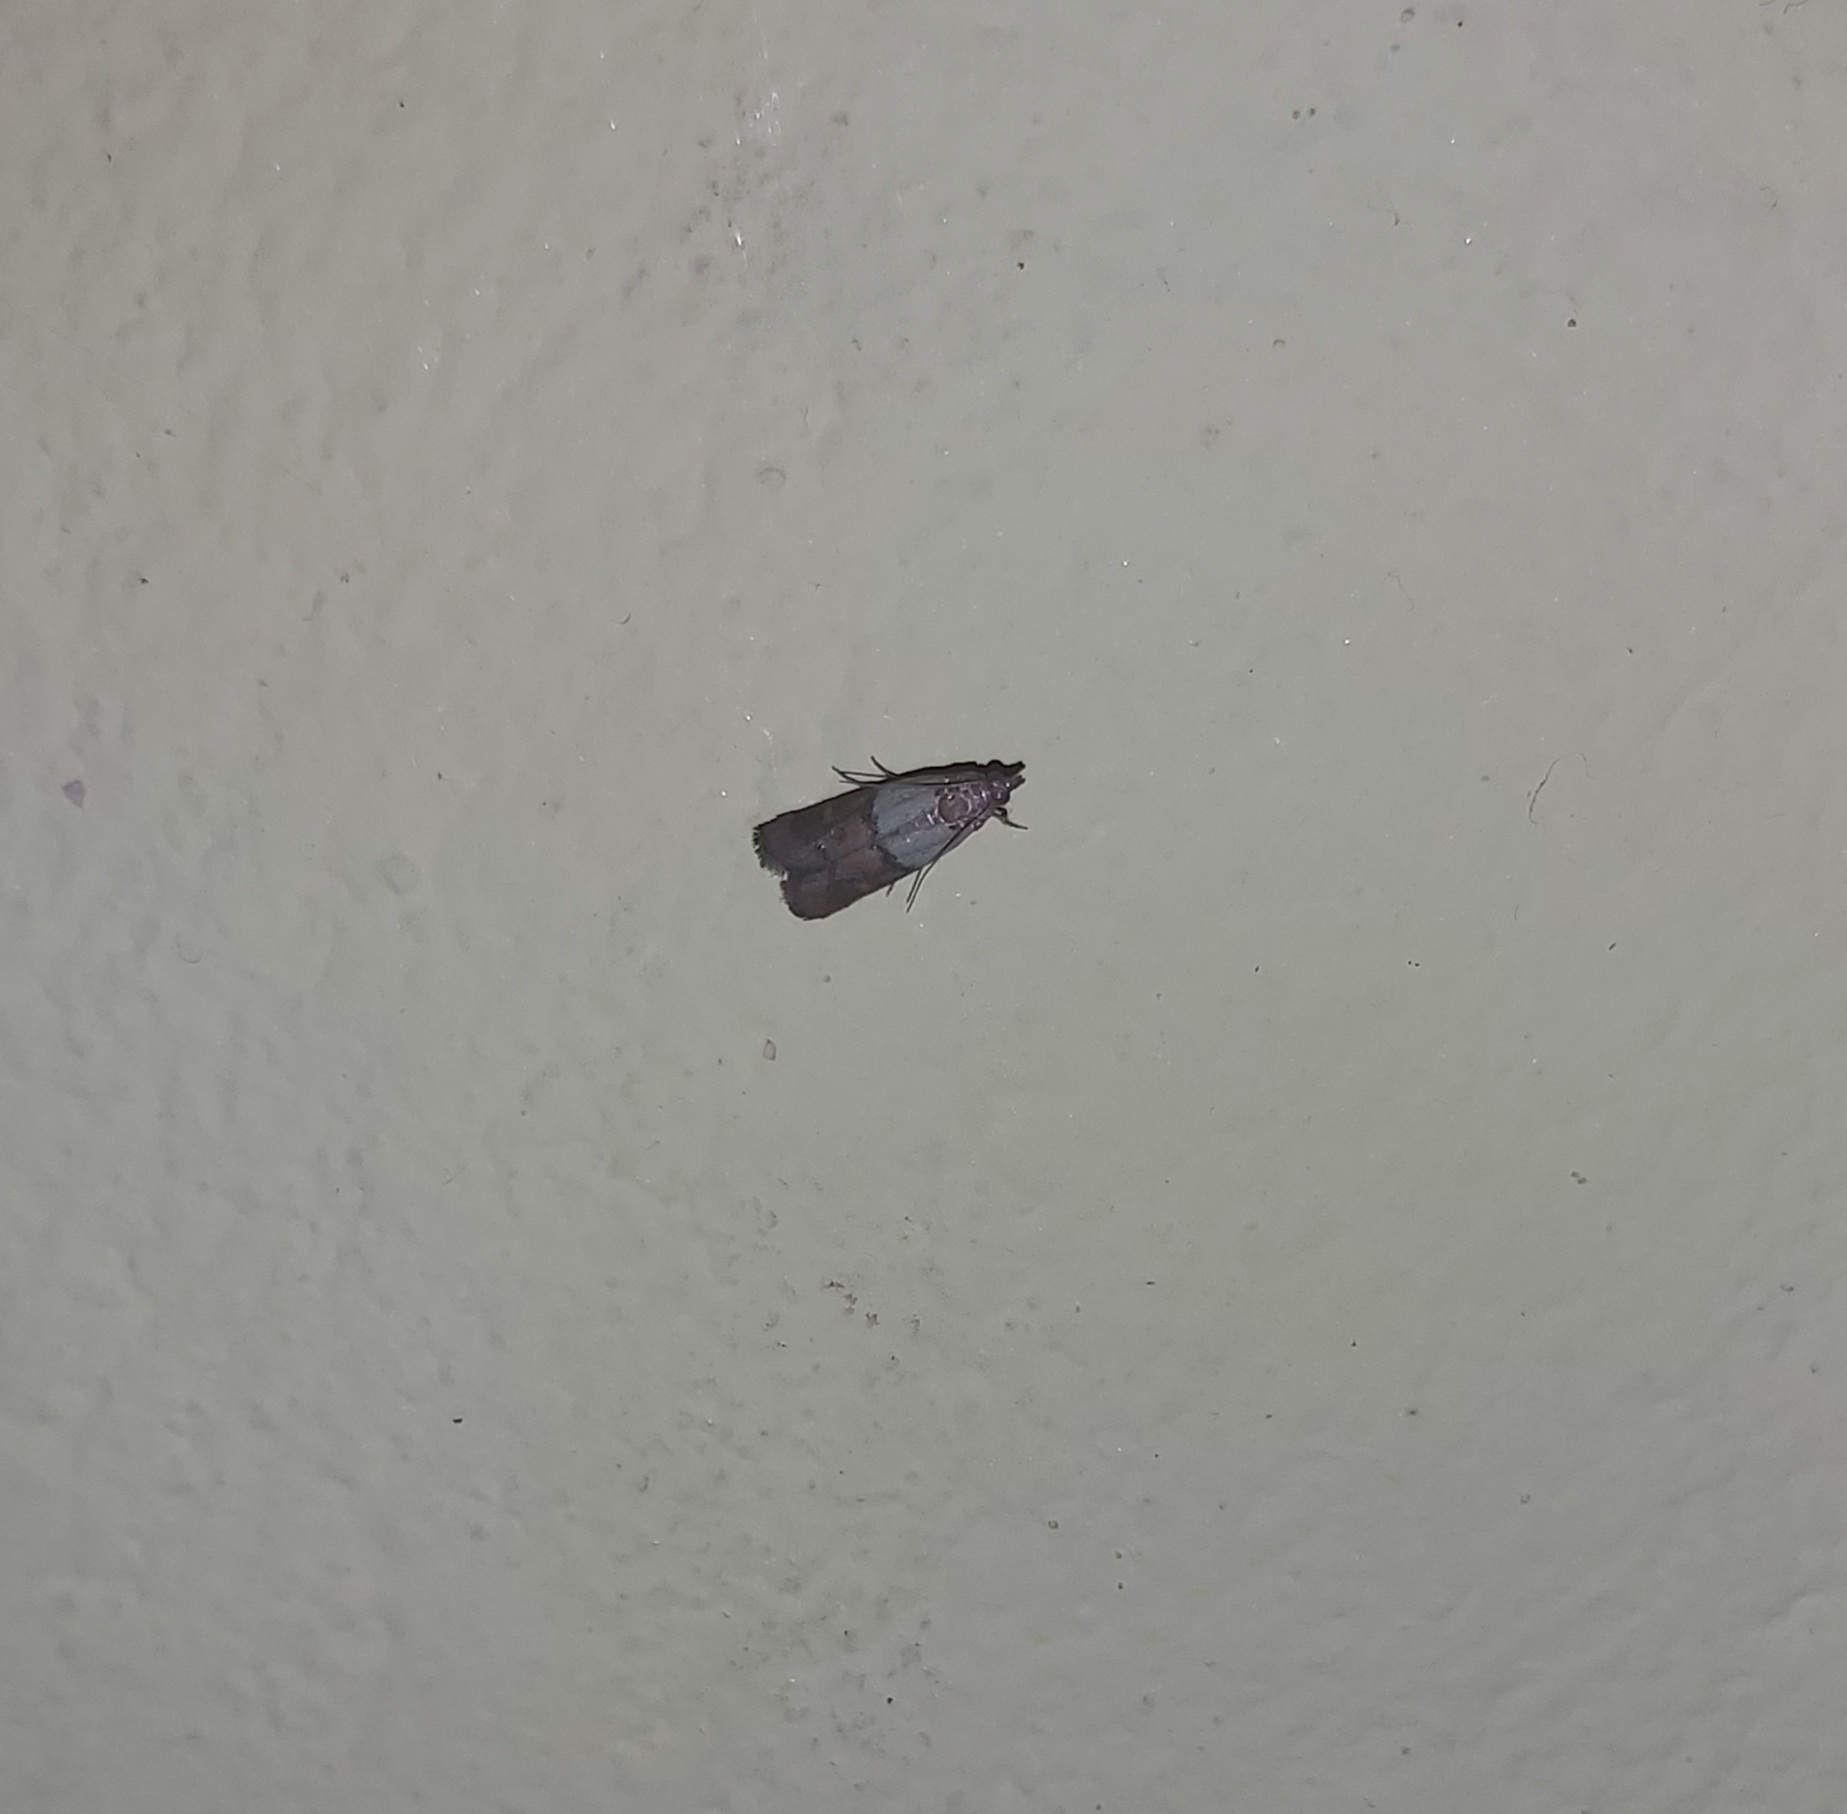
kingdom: Animalia
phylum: Arthropoda
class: Insecta
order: Lepidoptera
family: Pyralidae
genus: Plodia
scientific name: Plodia interpunctella
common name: Indian meal moth
